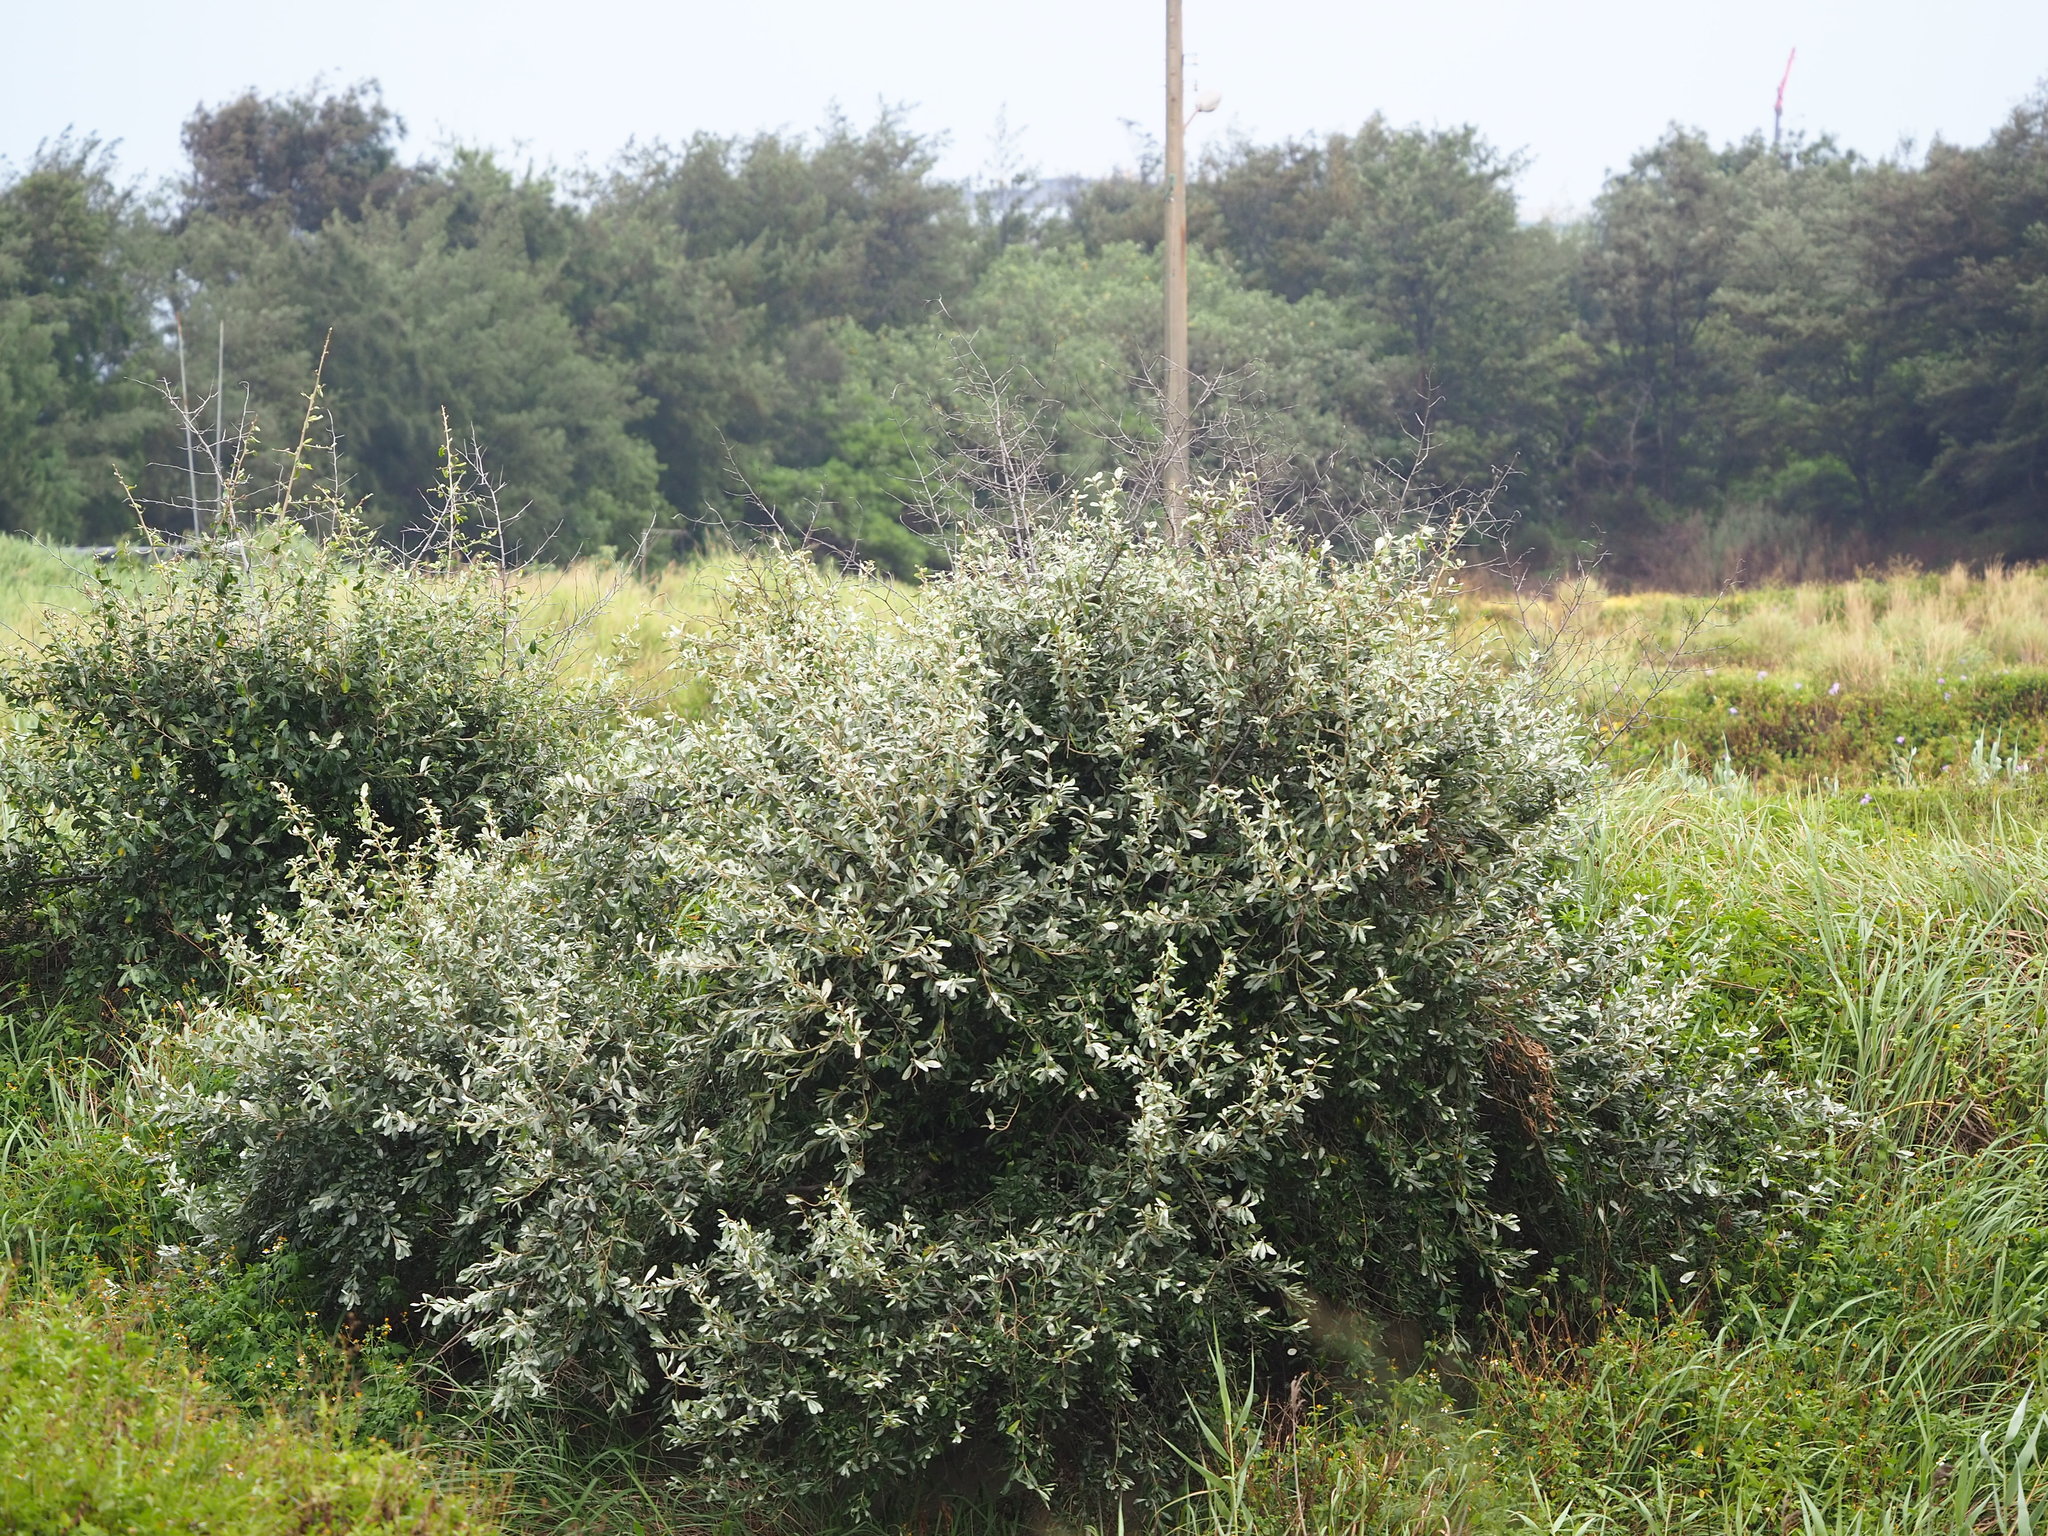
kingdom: Plantae
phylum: Tracheophyta
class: Magnoliopsida
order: Rosales
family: Elaeagnaceae
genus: Elaeagnus
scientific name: Elaeagnus oldhamii
